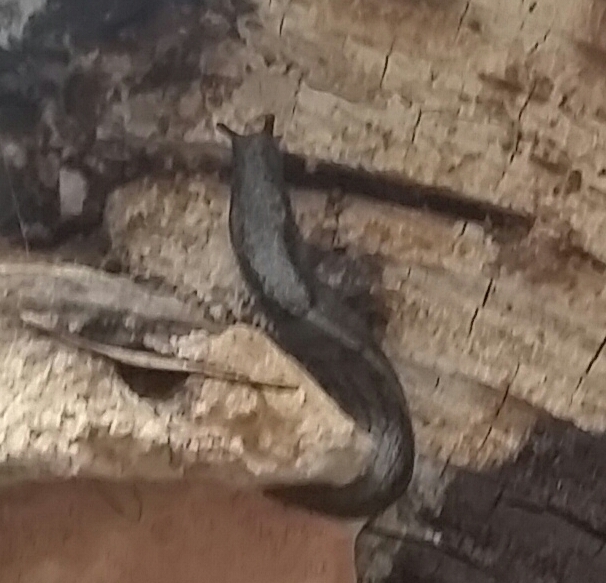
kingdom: Animalia
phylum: Mollusca
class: Gastropoda
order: Stylommatophora
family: Ariolimacidae
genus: Prophysaon
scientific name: Prophysaon andersonii
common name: Reticulate taildropper
